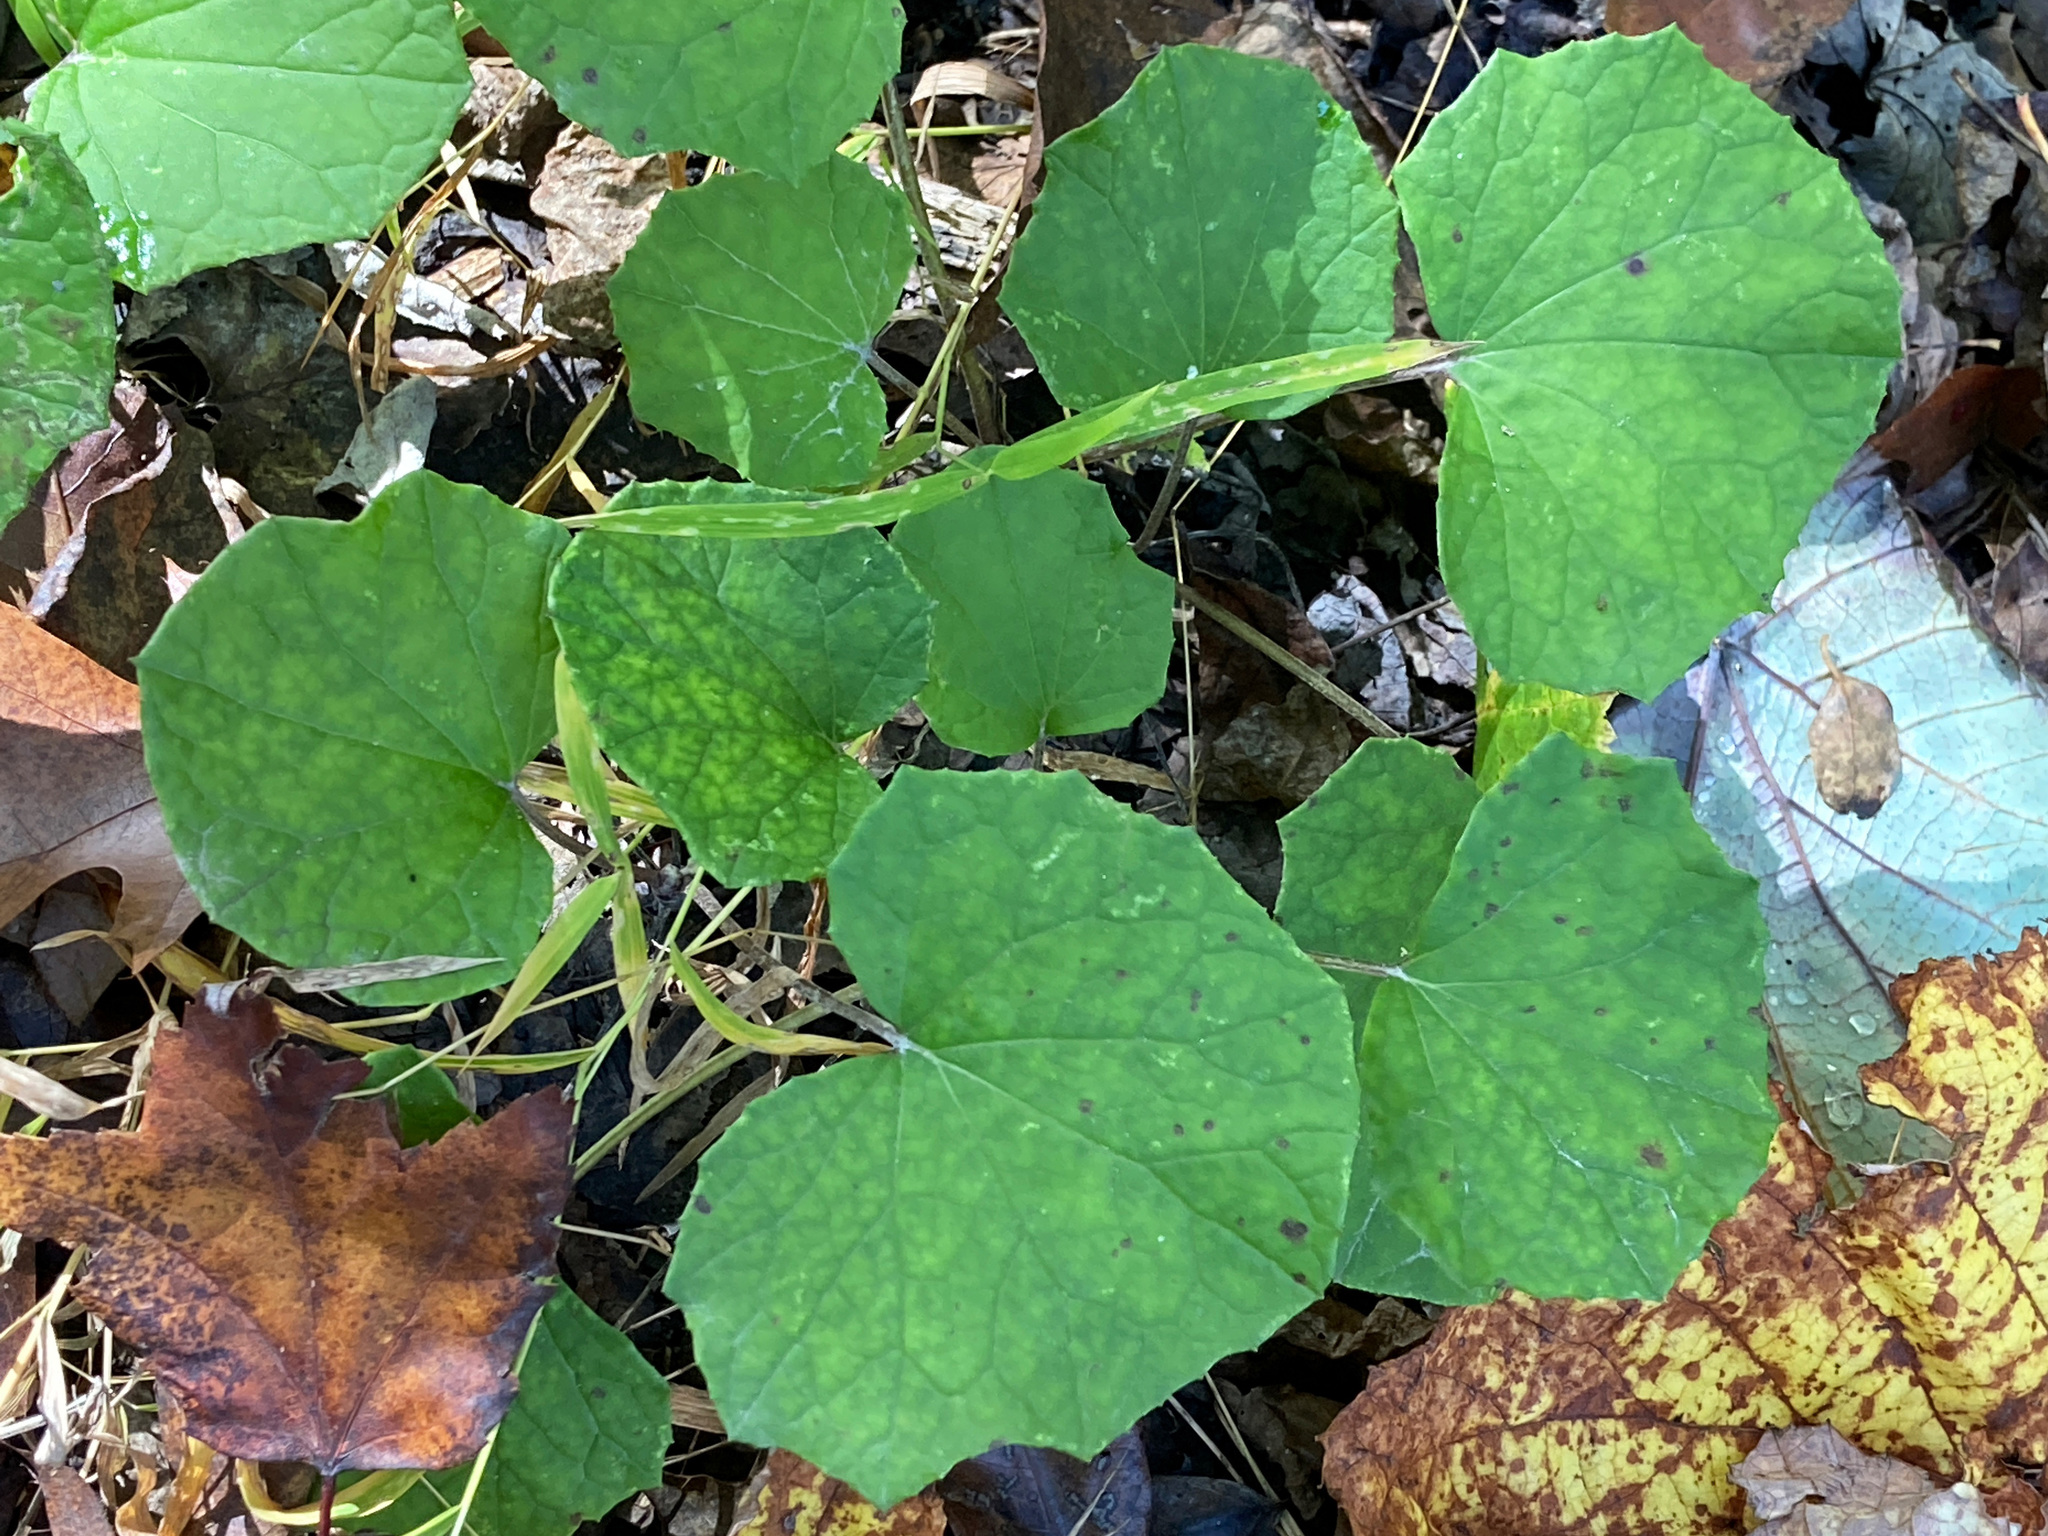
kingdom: Plantae
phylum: Tracheophyta
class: Magnoliopsida
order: Asterales
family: Asteraceae
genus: Tussilago
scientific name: Tussilago farfara
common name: Coltsfoot
